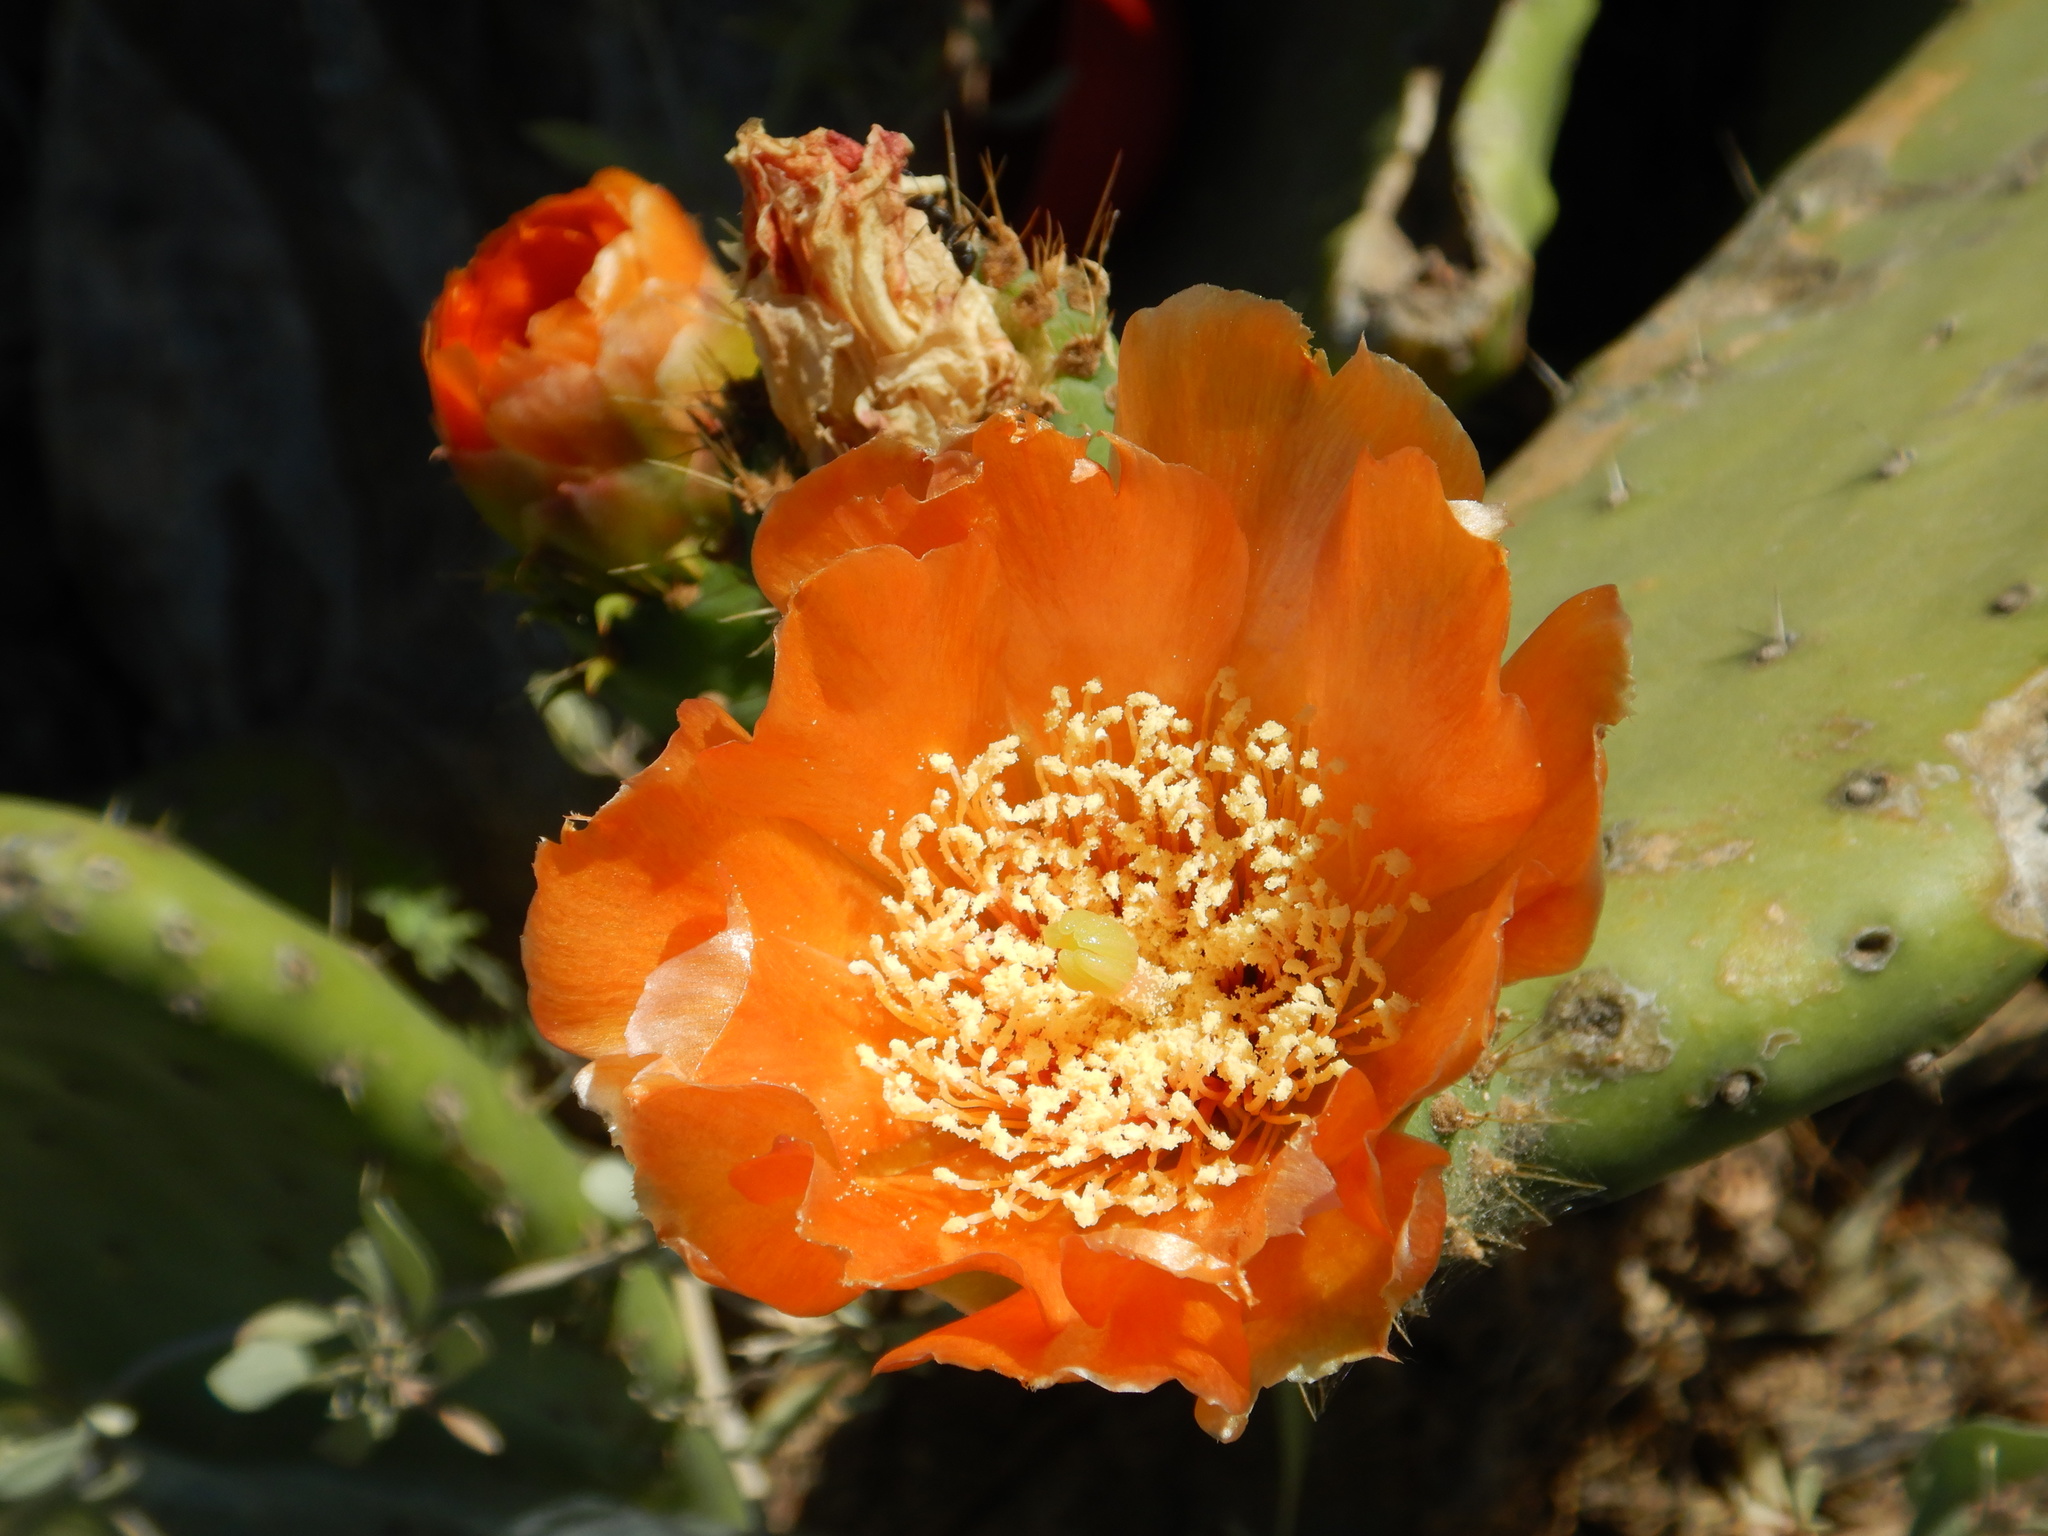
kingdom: Plantae
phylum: Tracheophyta
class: Magnoliopsida
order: Caryophyllales
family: Cactaceae
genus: Opuntia
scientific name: Opuntia ficus-indica
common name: Barbary fig
